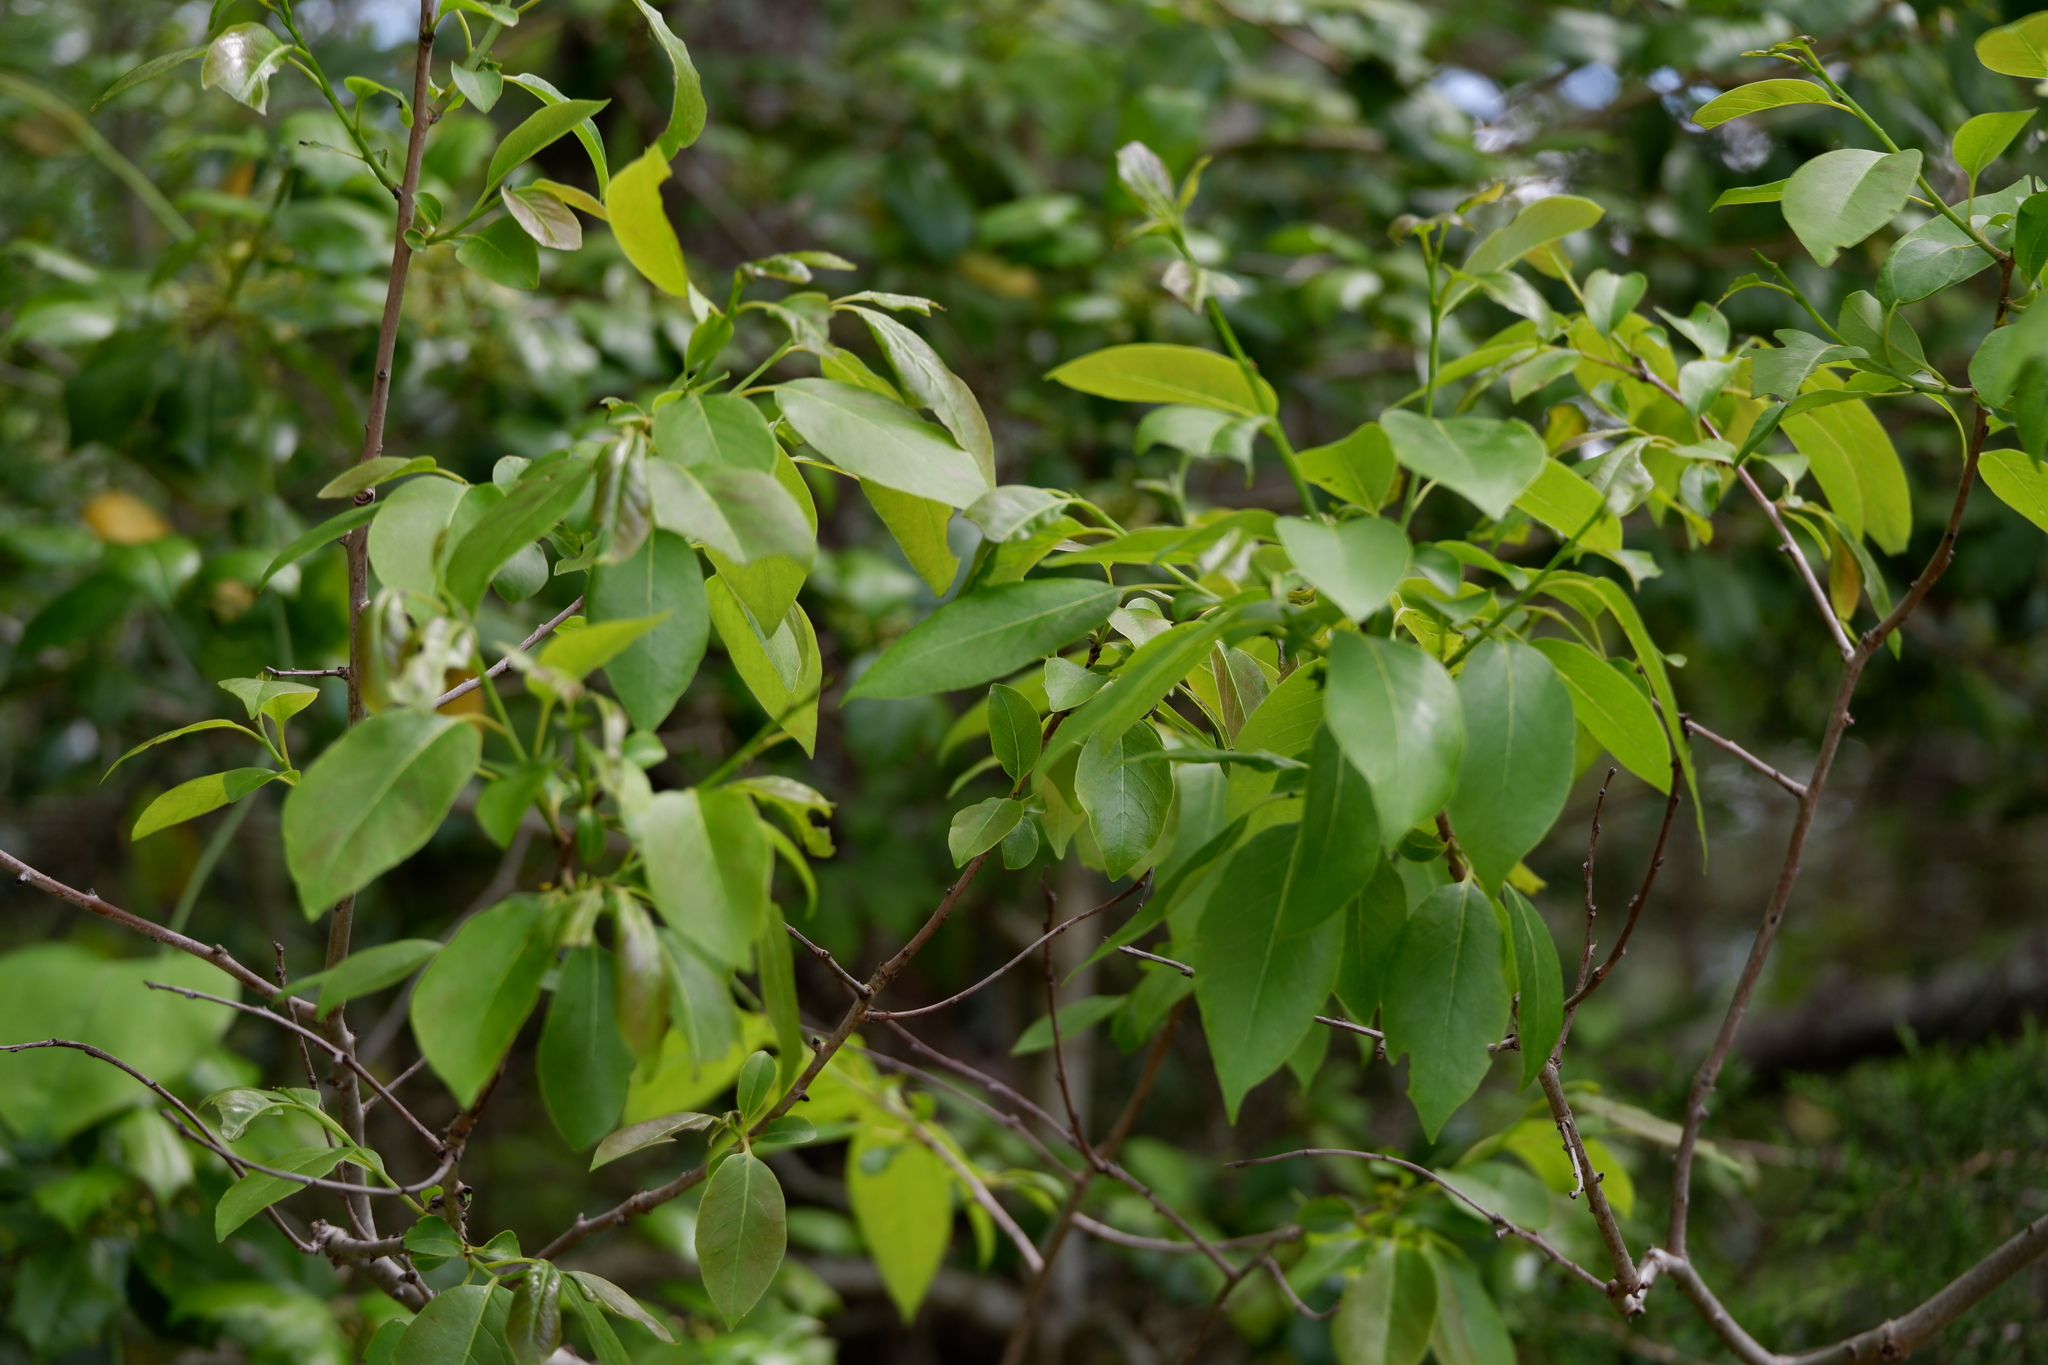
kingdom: Plantae
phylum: Tracheophyta
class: Magnoliopsida
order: Ericales
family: Ebenaceae
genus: Diospyros
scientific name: Diospyros virginiana
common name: Persimmon
